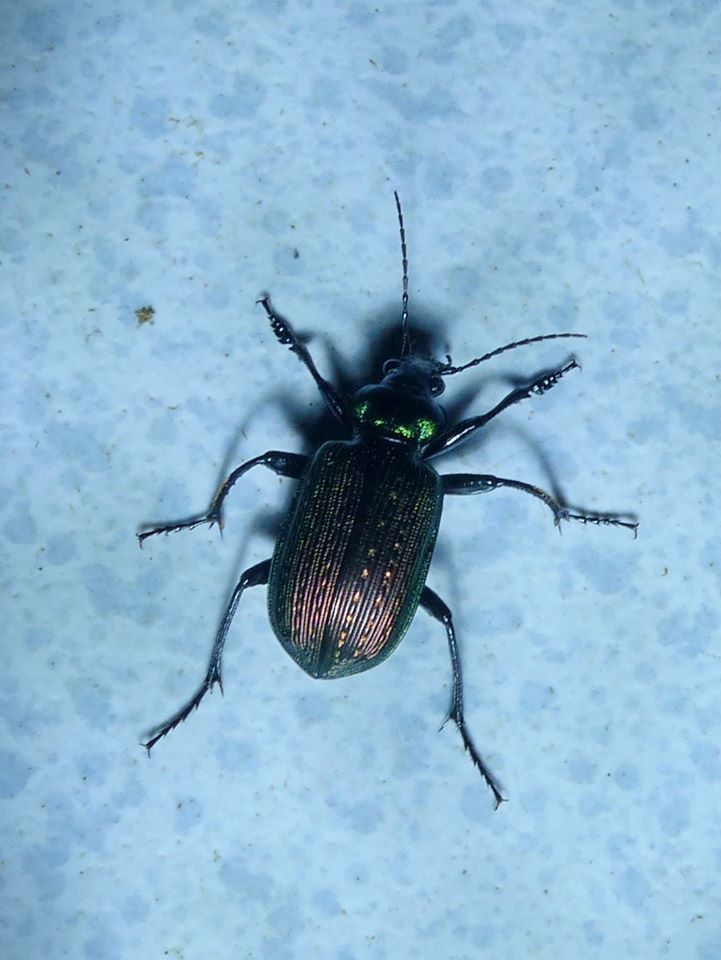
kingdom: Animalia
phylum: Arthropoda
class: Insecta
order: Coleoptera
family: Carabidae
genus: Calosoma
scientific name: Calosoma alternans
